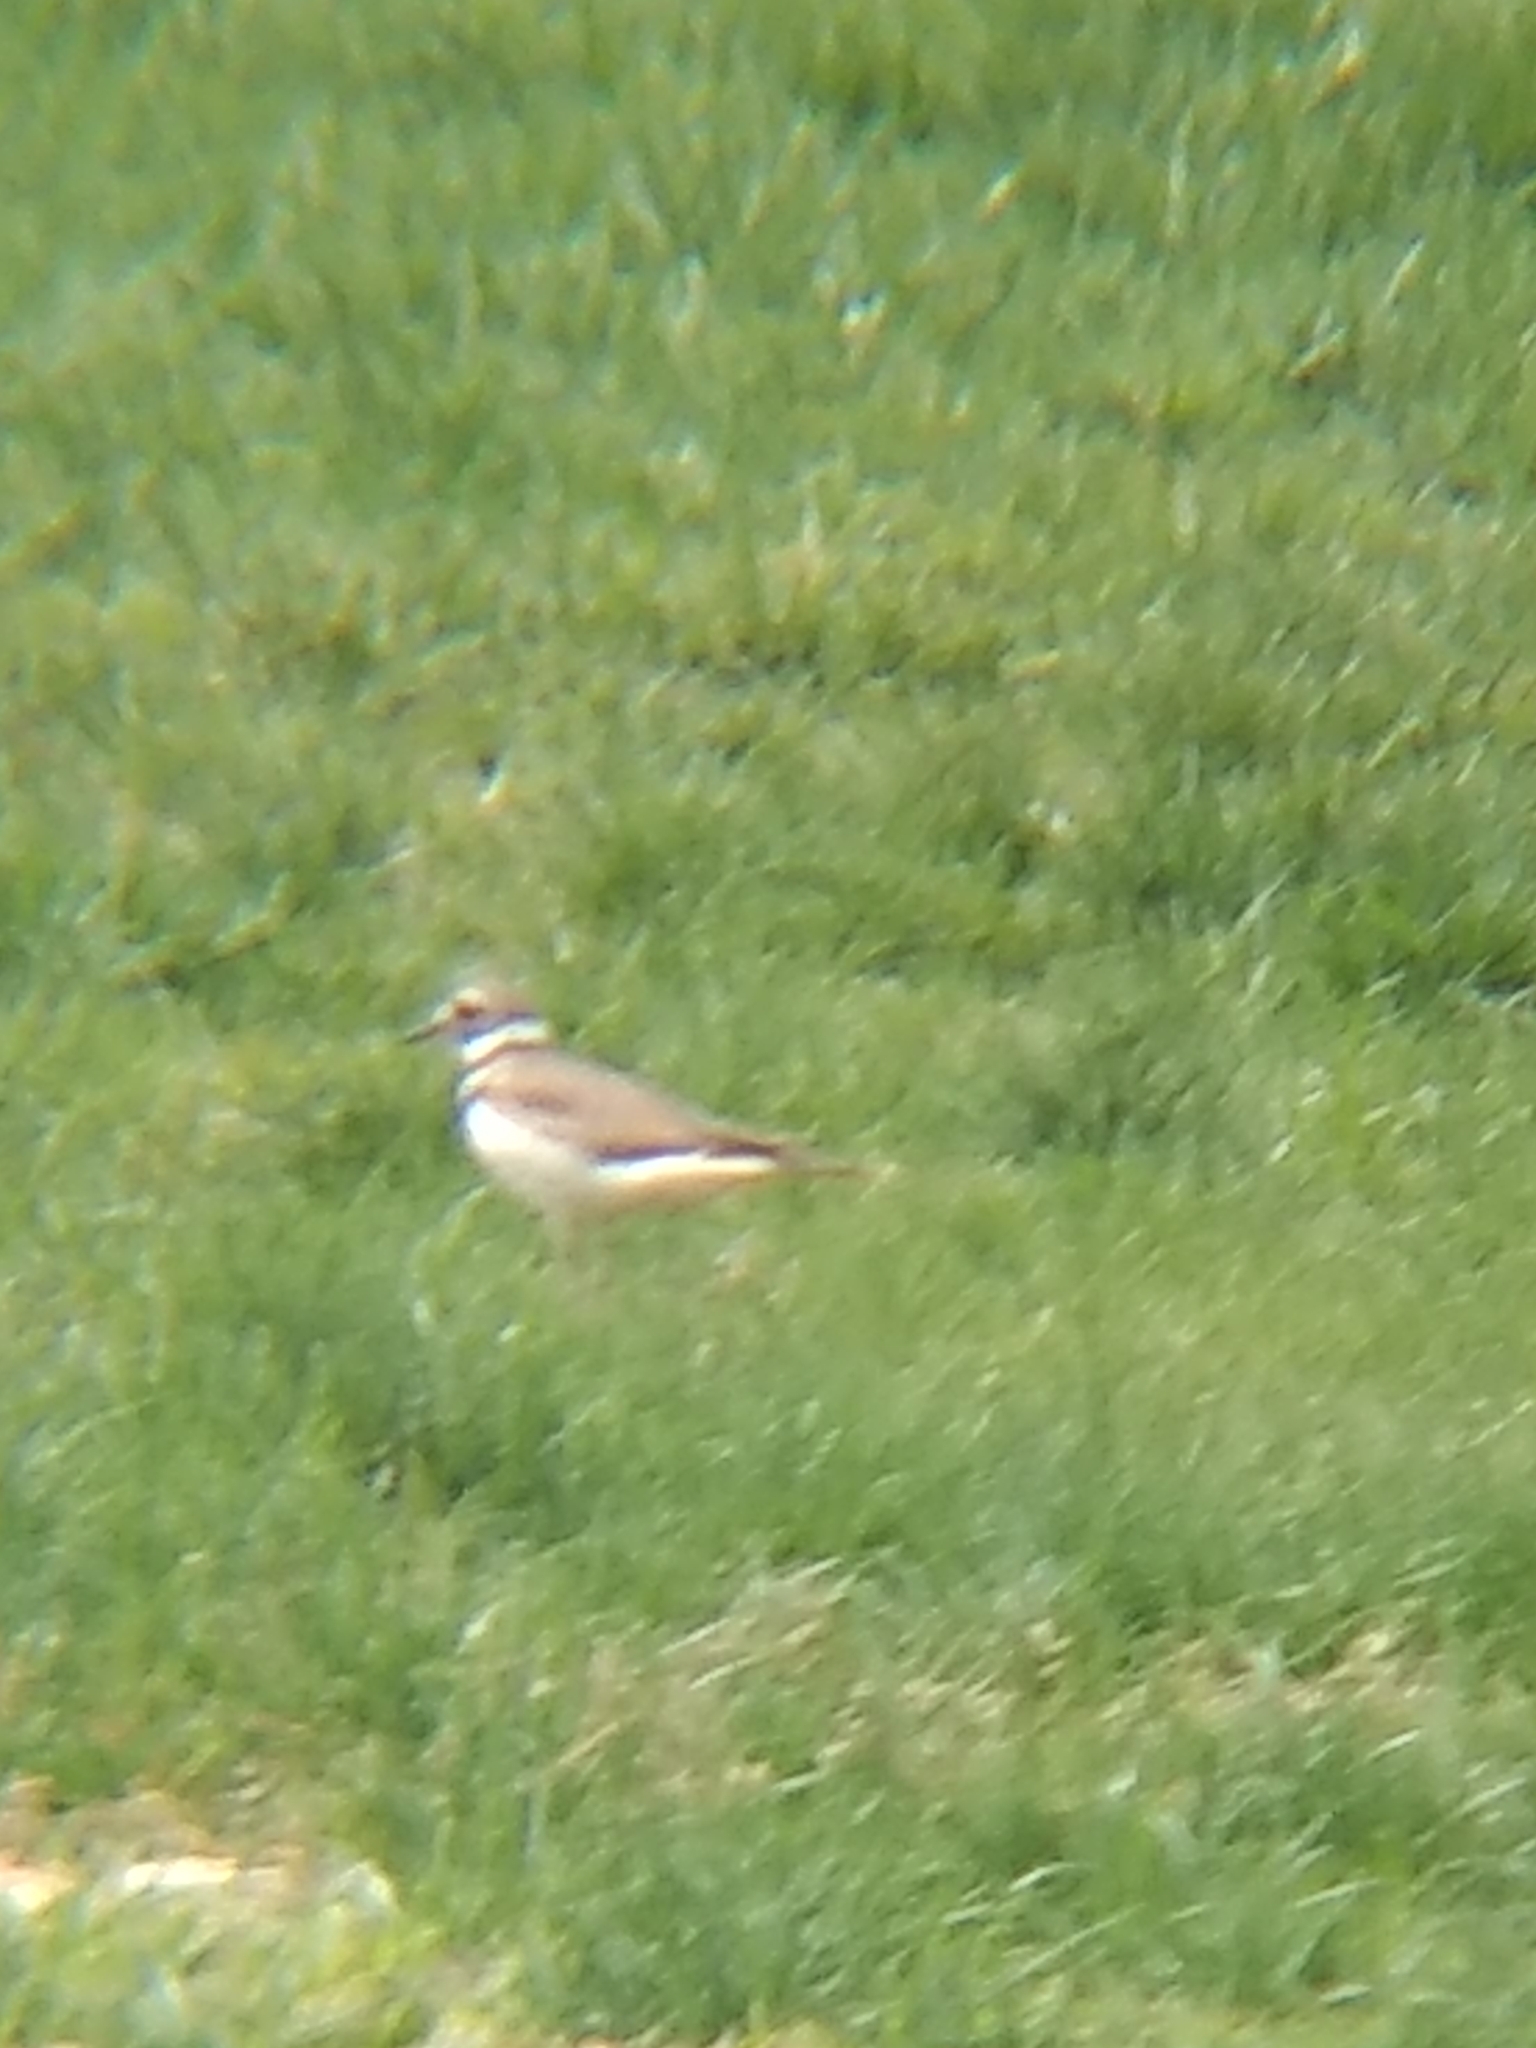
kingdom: Animalia
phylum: Chordata
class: Aves
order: Charadriiformes
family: Charadriidae
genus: Charadrius
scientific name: Charadrius vociferus
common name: Killdeer
